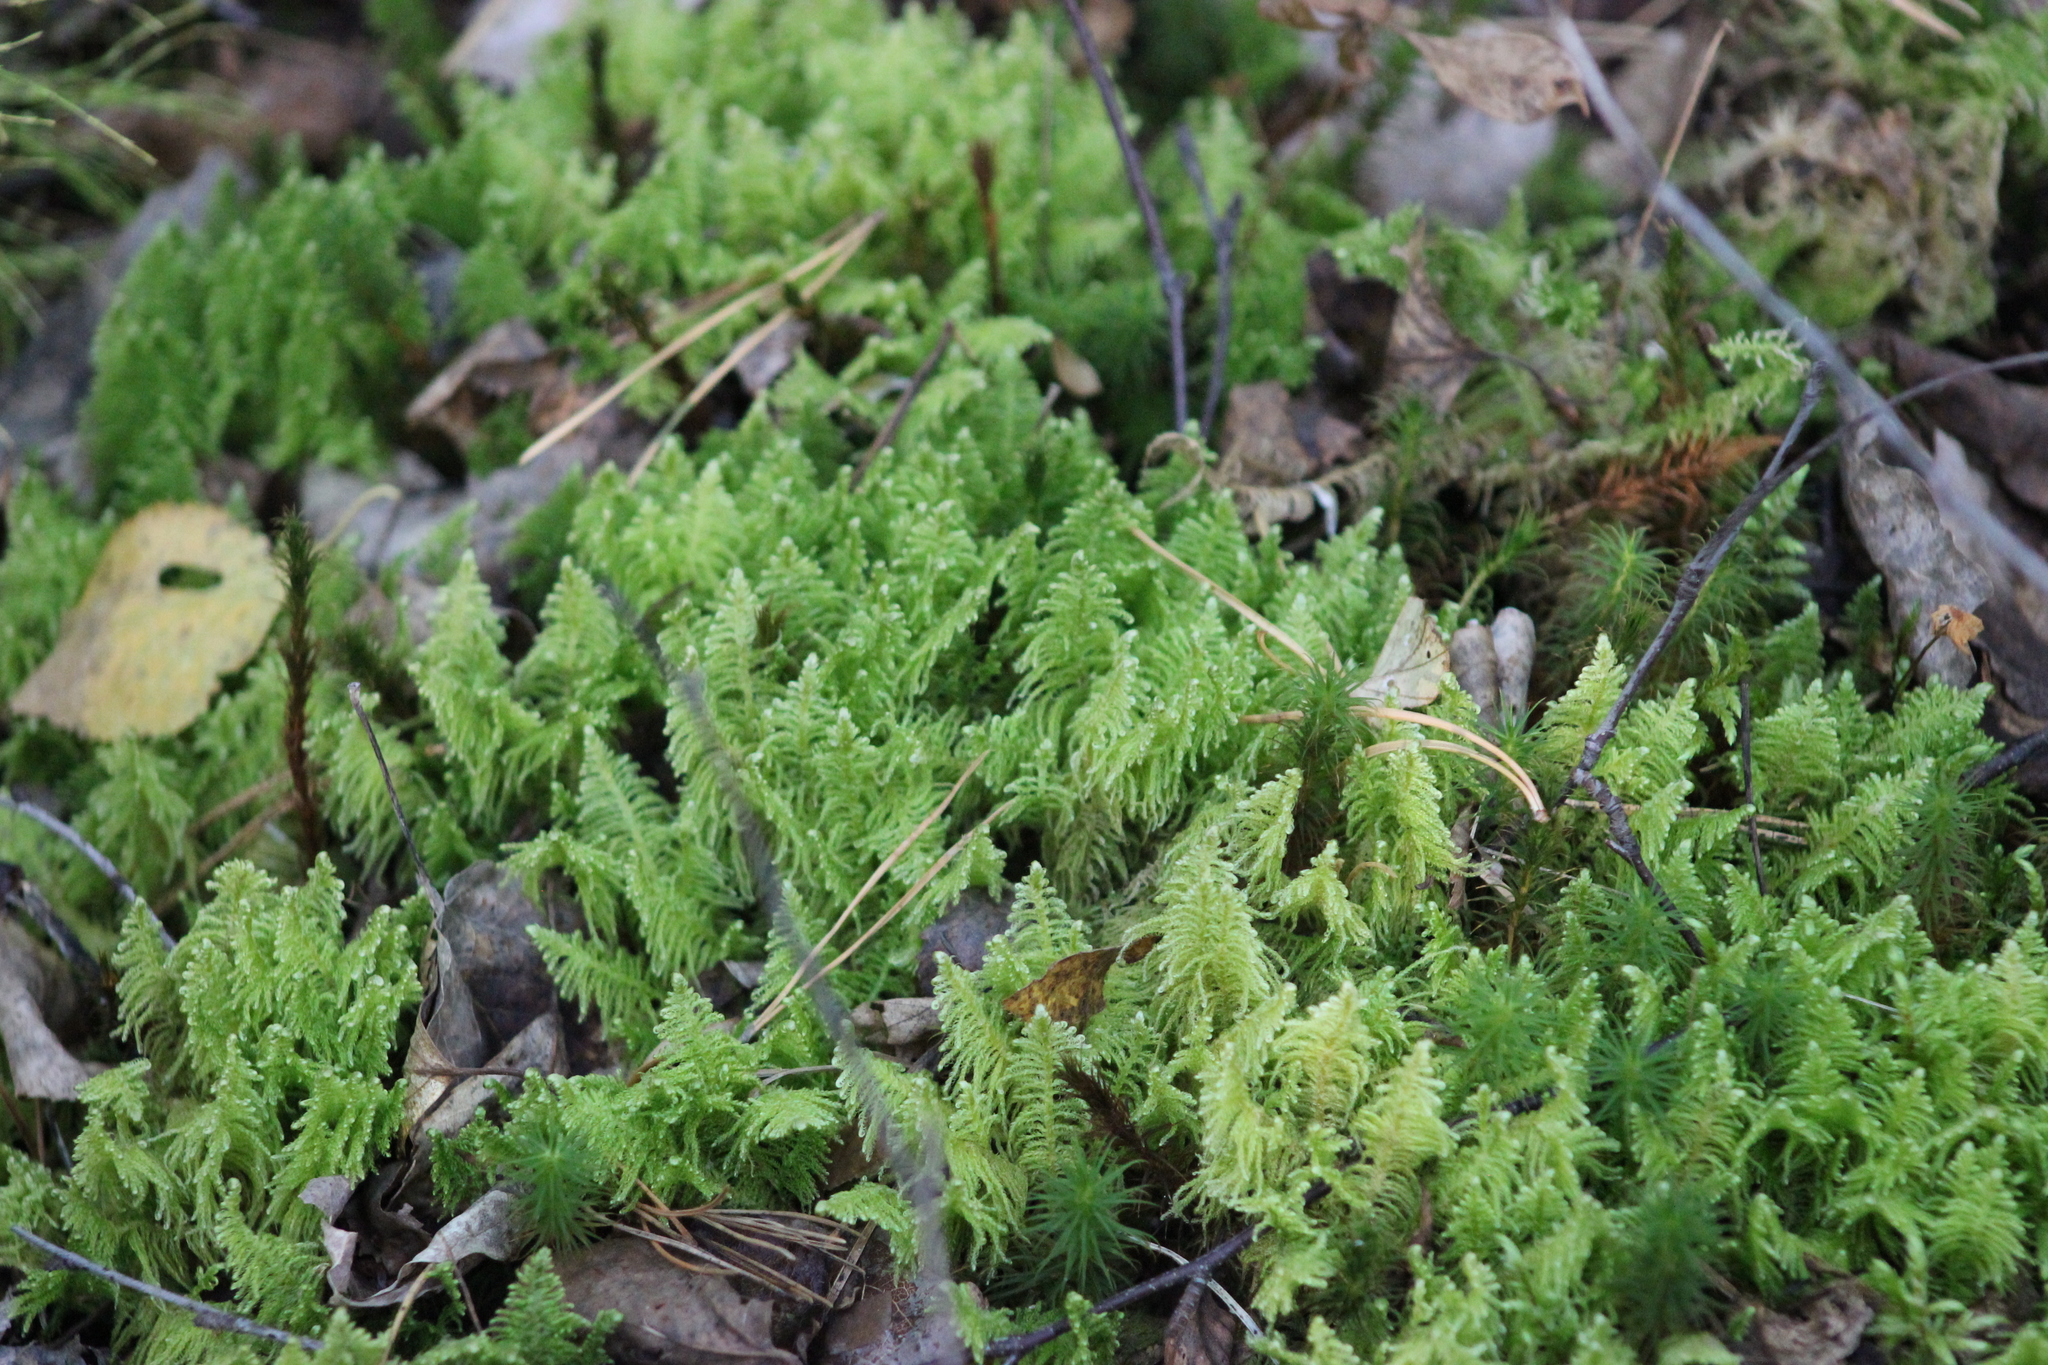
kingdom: Plantae
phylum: Bryophyta
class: Bryopsida
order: Hypnales
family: Pylaisiaceae
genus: Ptilium
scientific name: Ptilium crista-castrensis
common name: Knight's plume moss
